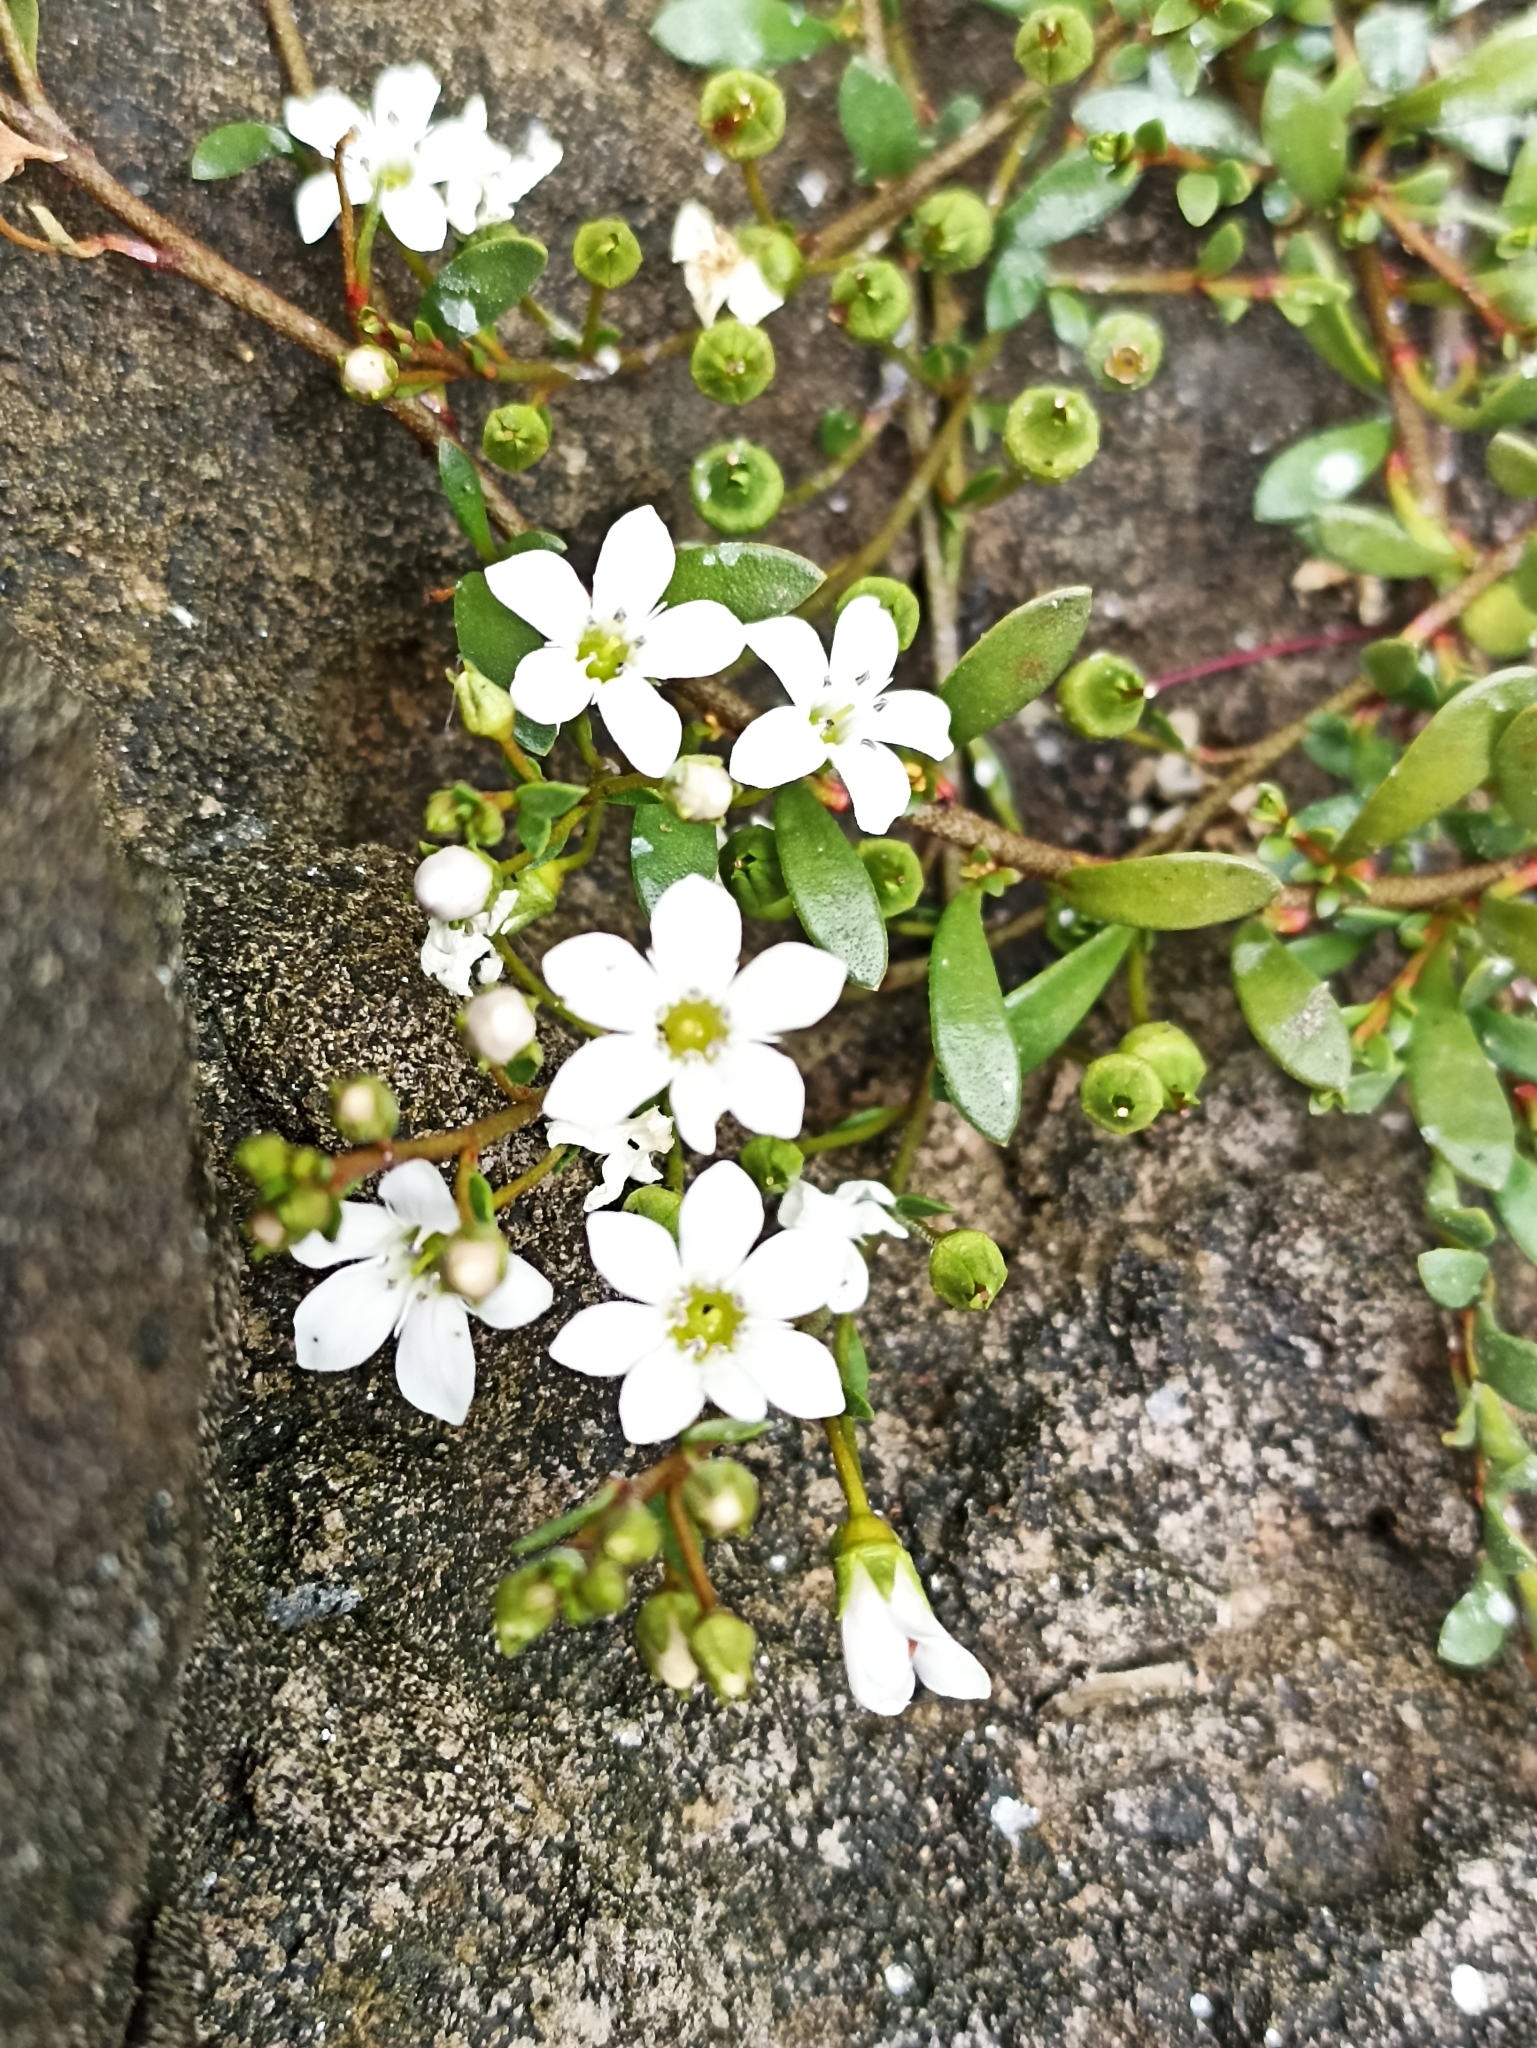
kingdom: Plantae
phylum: Tracheophyta
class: Magnoliopsida
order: Ericales
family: Primulaceae
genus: Samolus
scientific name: Samolus repens
